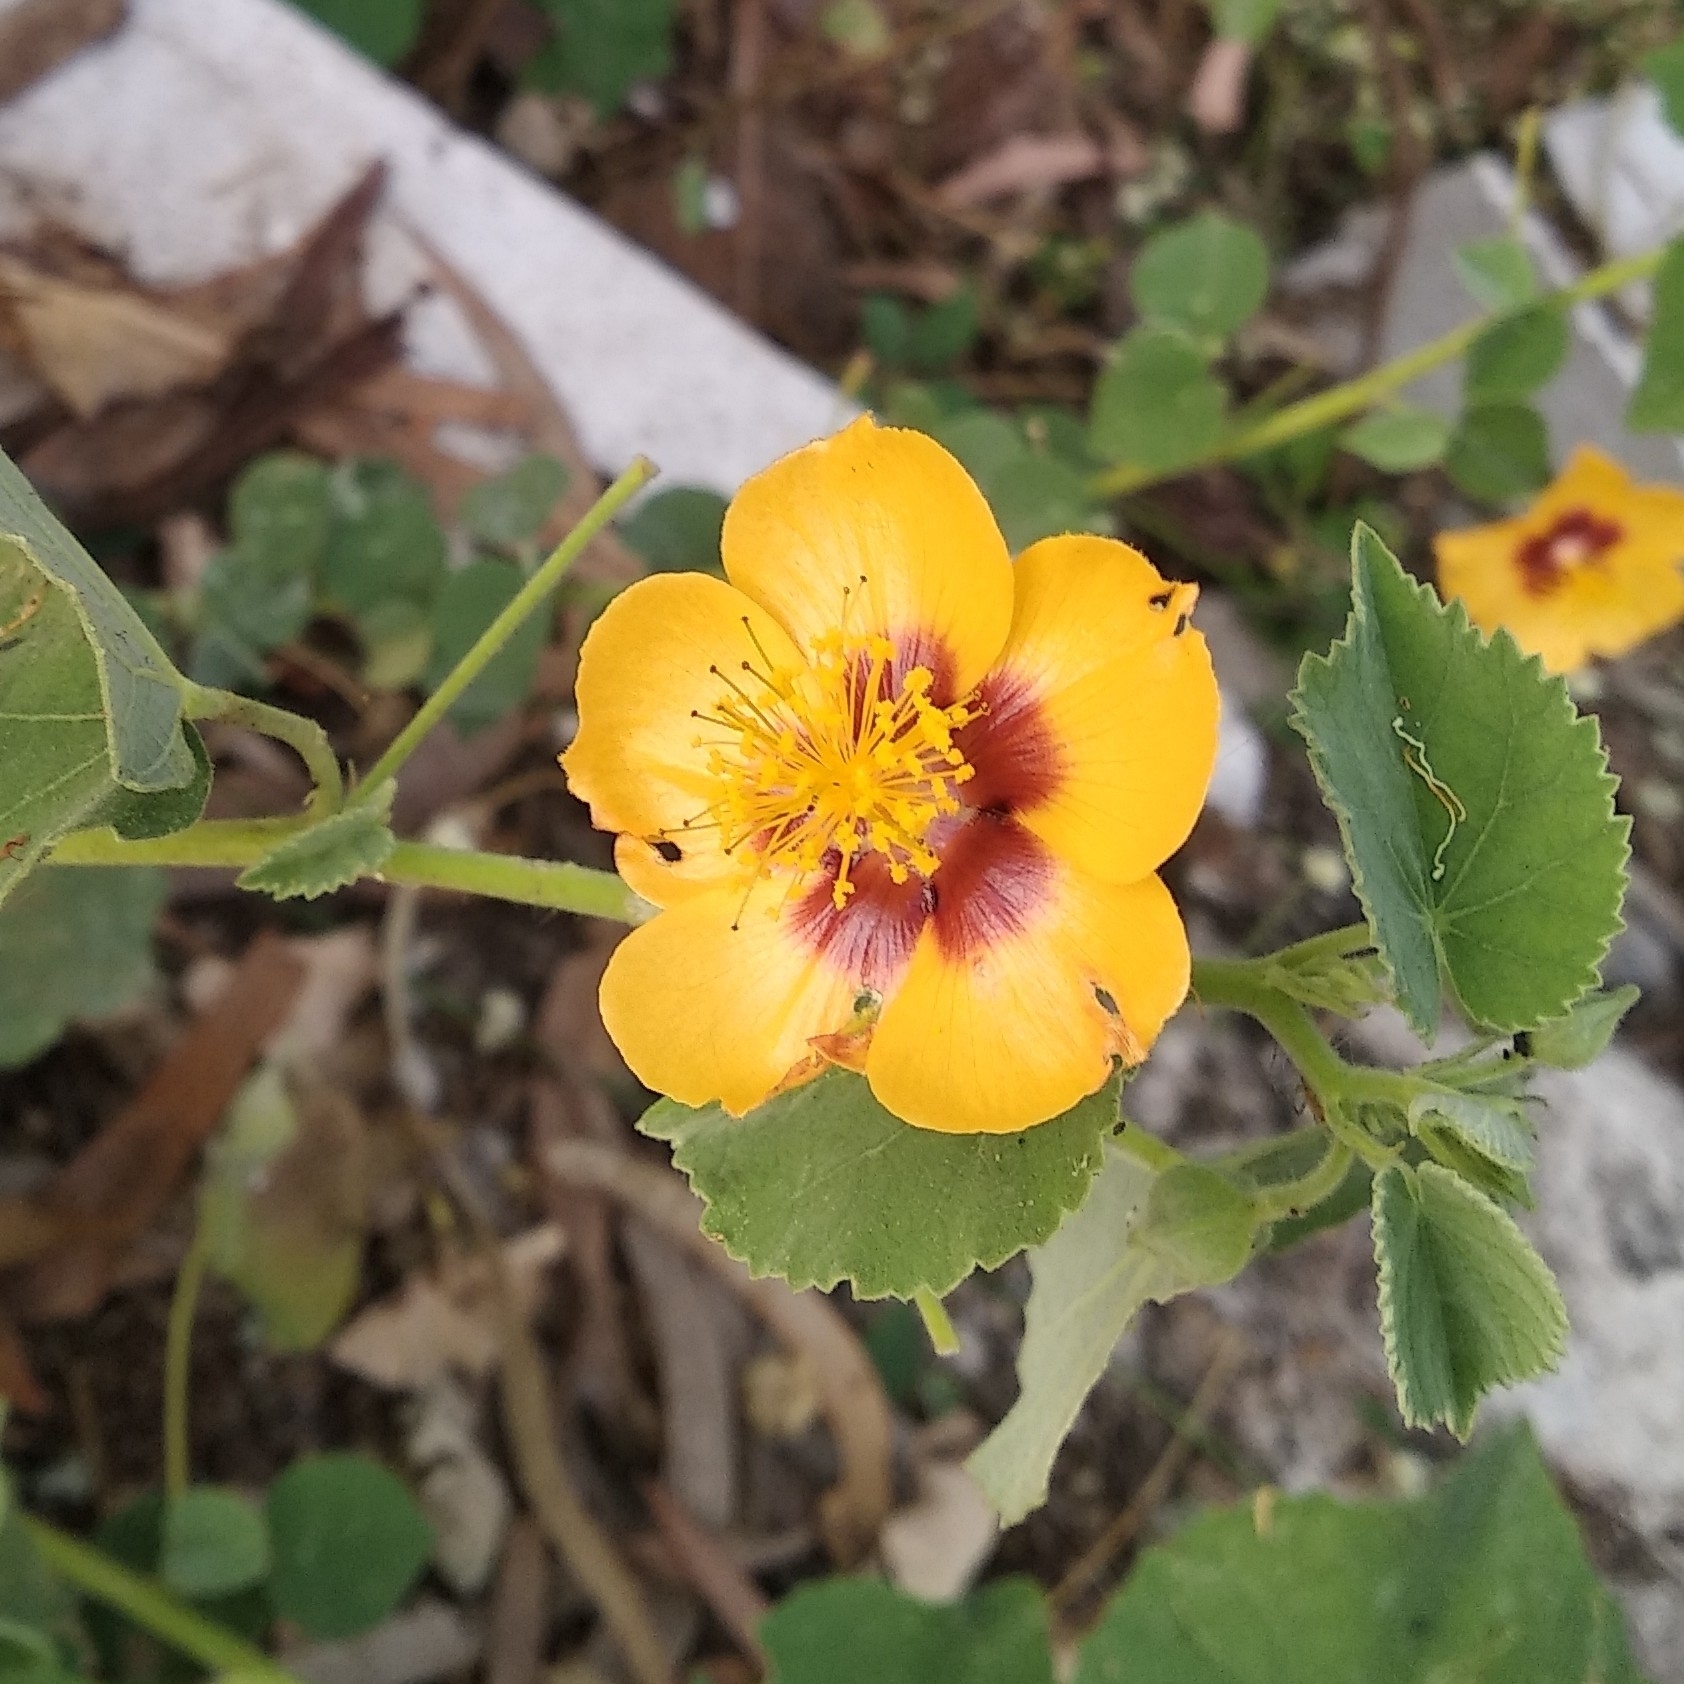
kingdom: Plantae
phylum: Tracheophyta
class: Magnoliopsida
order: Malvales
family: Malvaceae
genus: Abutilon
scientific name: Abutilon hirtum
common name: Florida keys indian mallow
